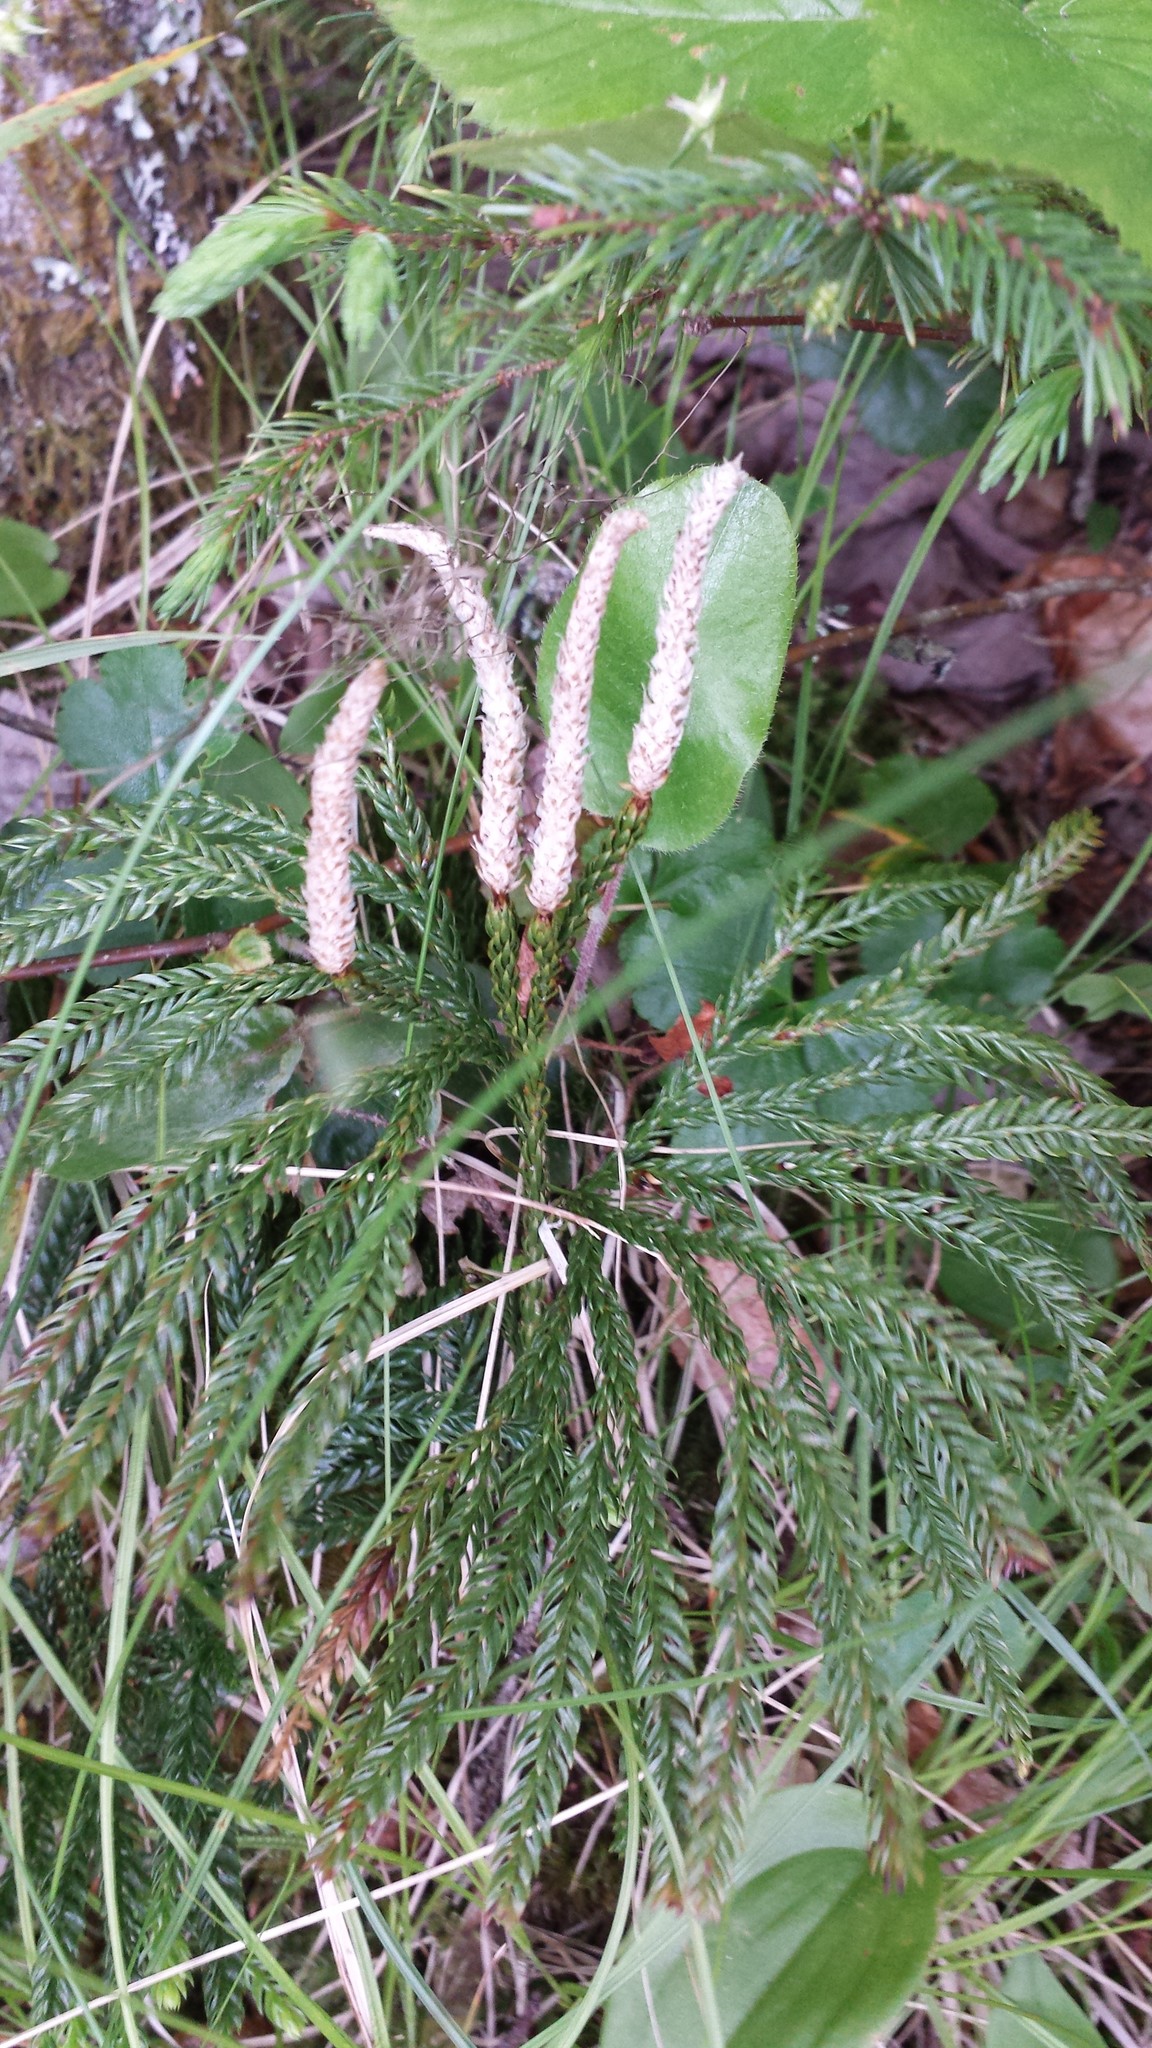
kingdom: Plantae
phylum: Tracheophyta
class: Lycopodiopsida
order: Lycopodiales
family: Lycopodiaceae
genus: Dendrolycopodium
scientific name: Dendrolycopodium obscurum
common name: Common ground-pine
